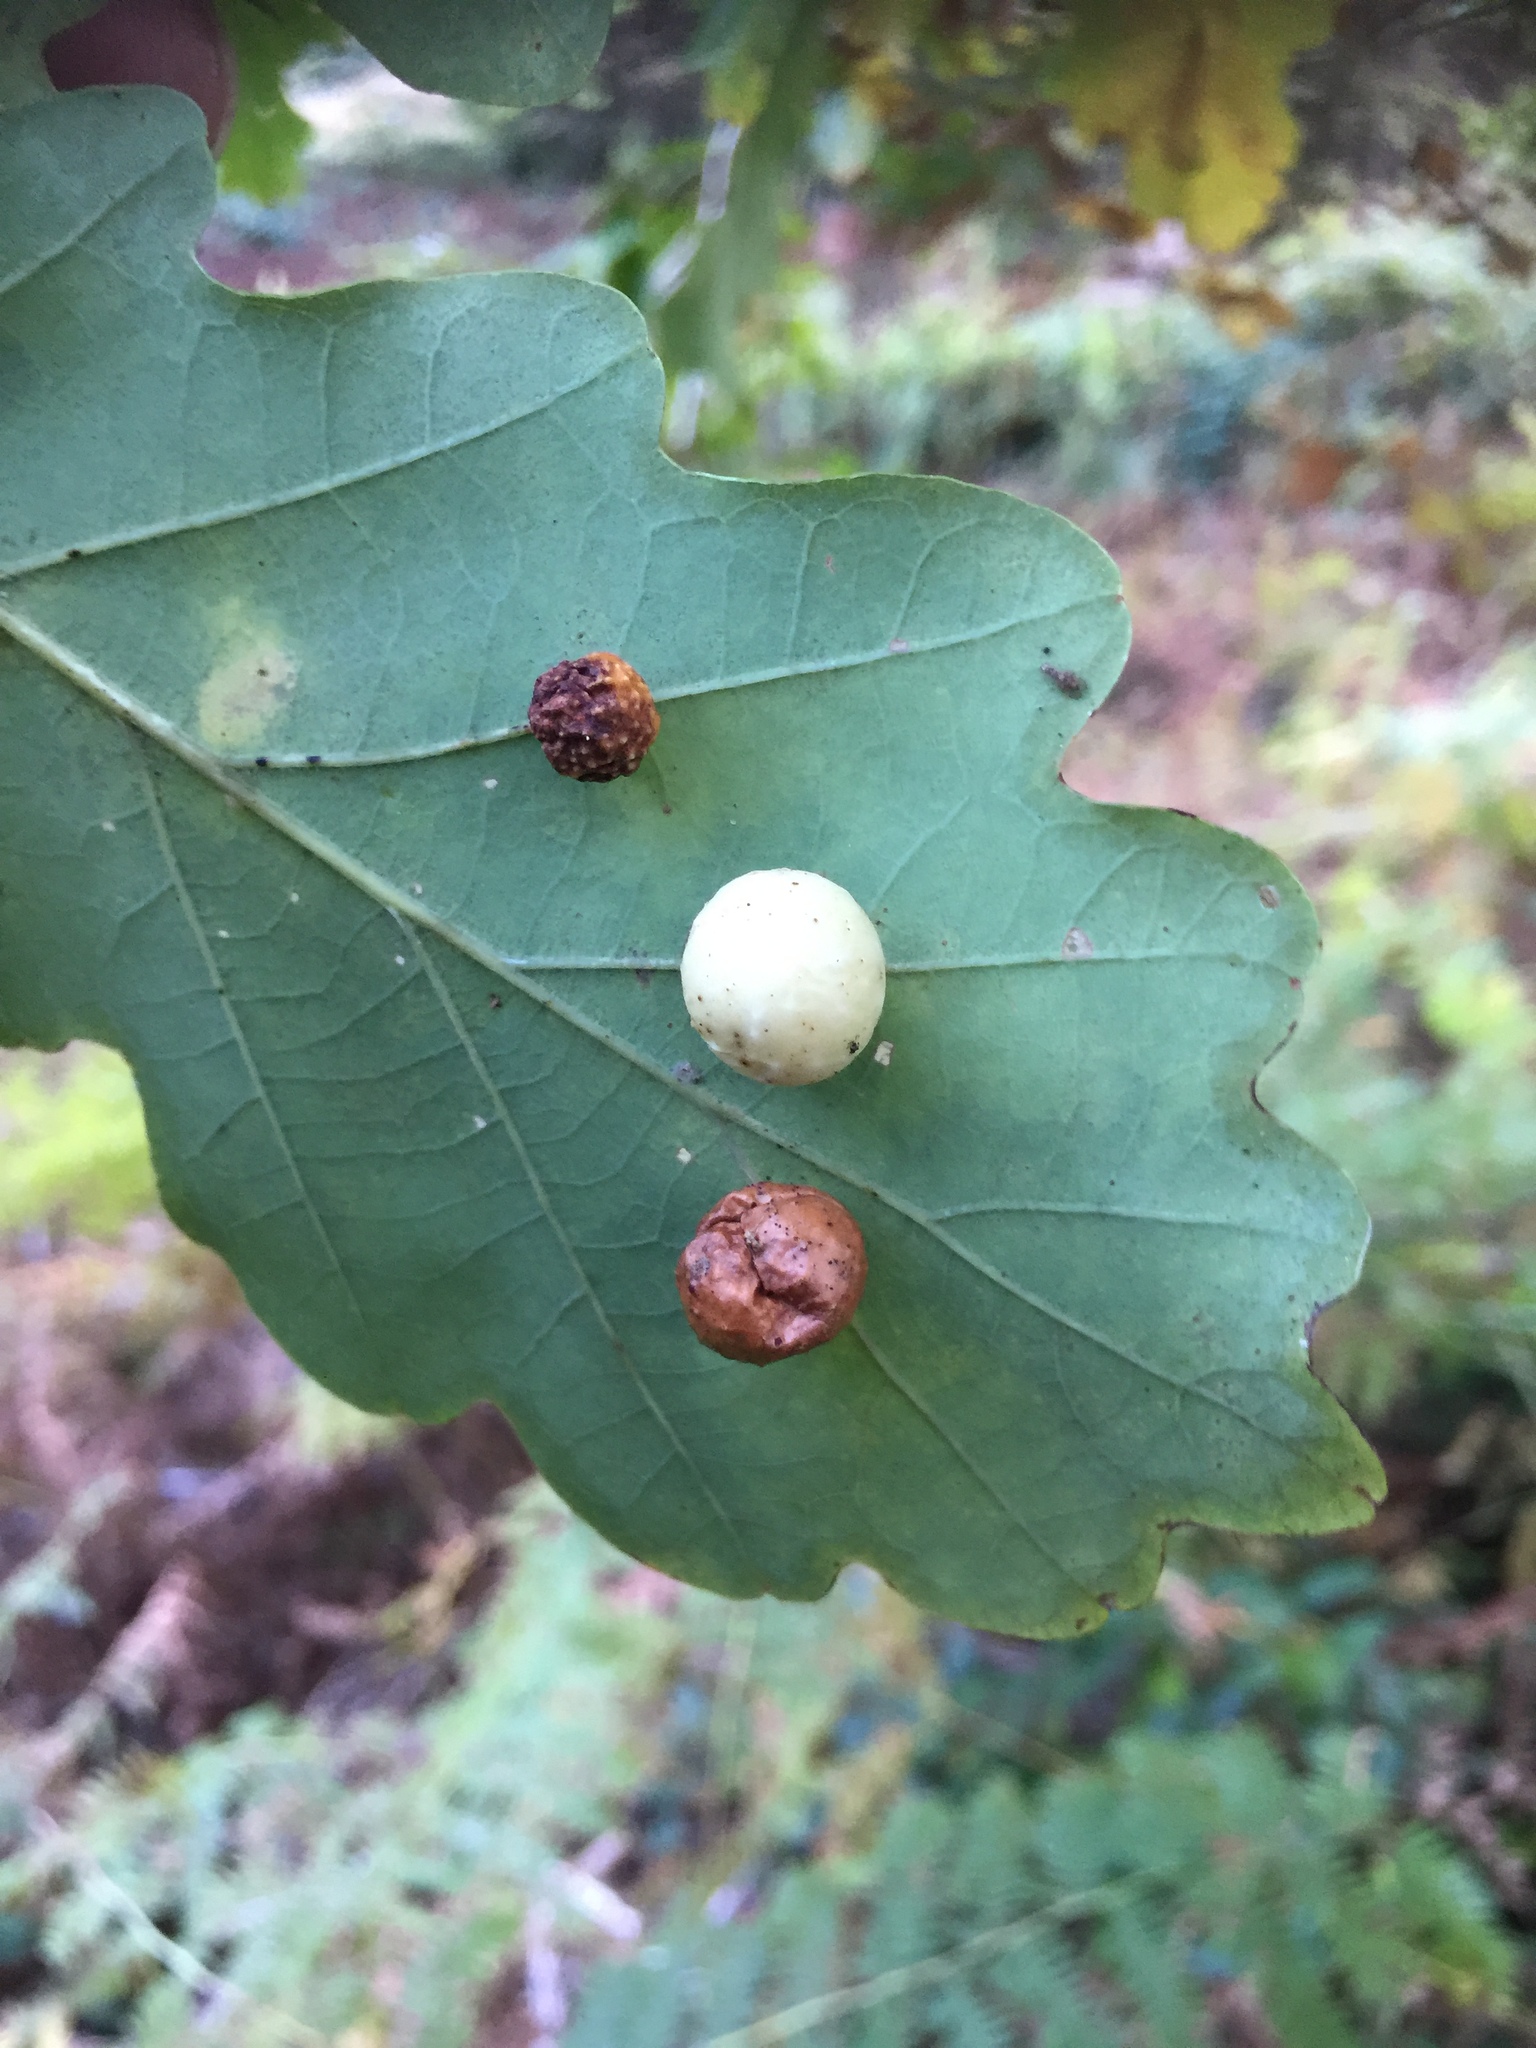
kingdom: Animalia
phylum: Arthropoda
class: Insecta
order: Hymenoptera
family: Cynipidae
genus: Cynips
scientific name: Cynips quercusfolii
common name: Cherry gall
